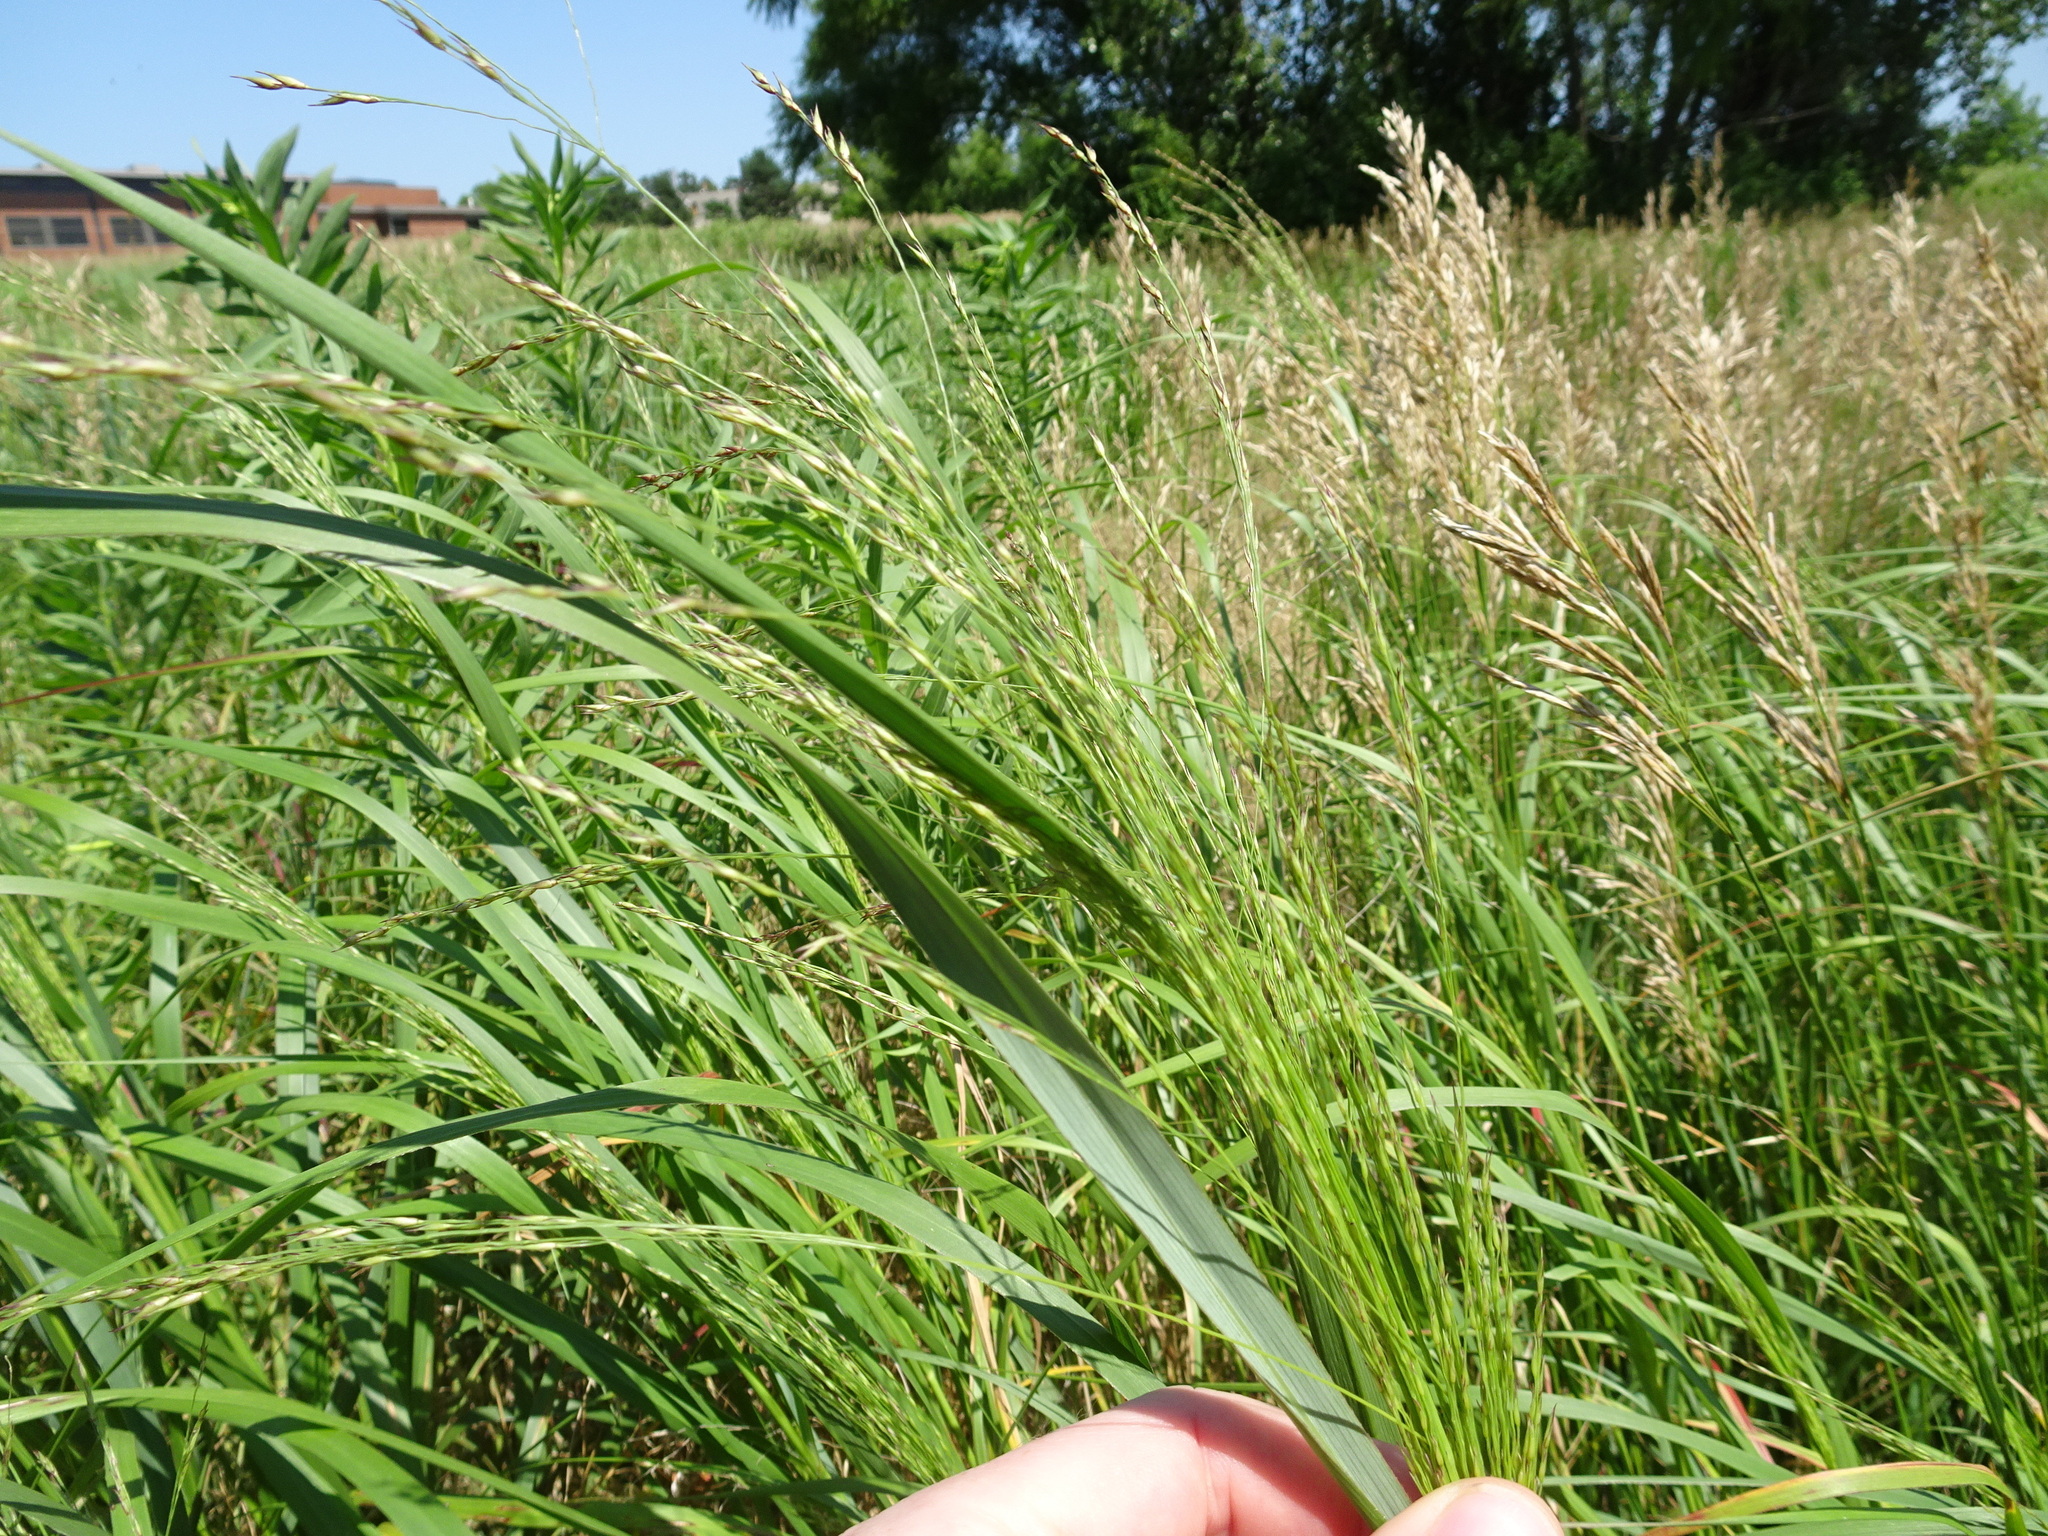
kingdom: Plantae
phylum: Tracheophyta
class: Liliopsida
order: Poales
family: Poaceae
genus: Panicum
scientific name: Panicum virgatum
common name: Switchgrass
